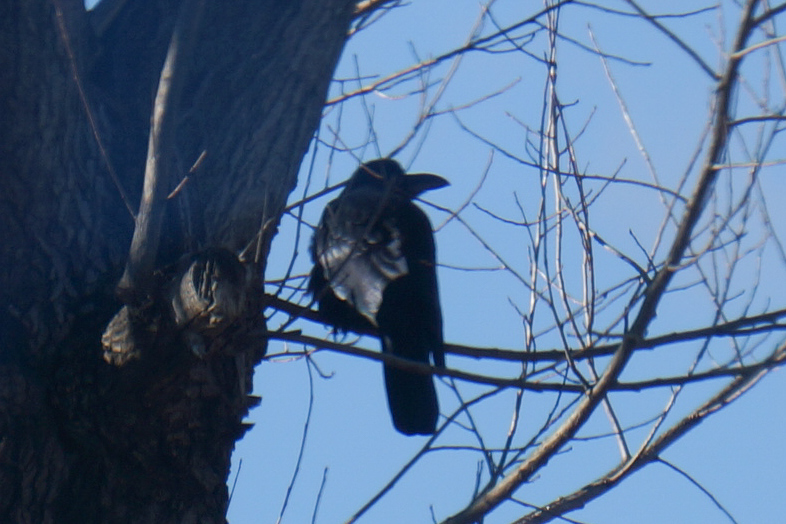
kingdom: Animalia
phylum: Chordata
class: Aves
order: Passeriformes
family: Corvidae
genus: Corvus
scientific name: Corvus macrorhynchos
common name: Large-billed crow
